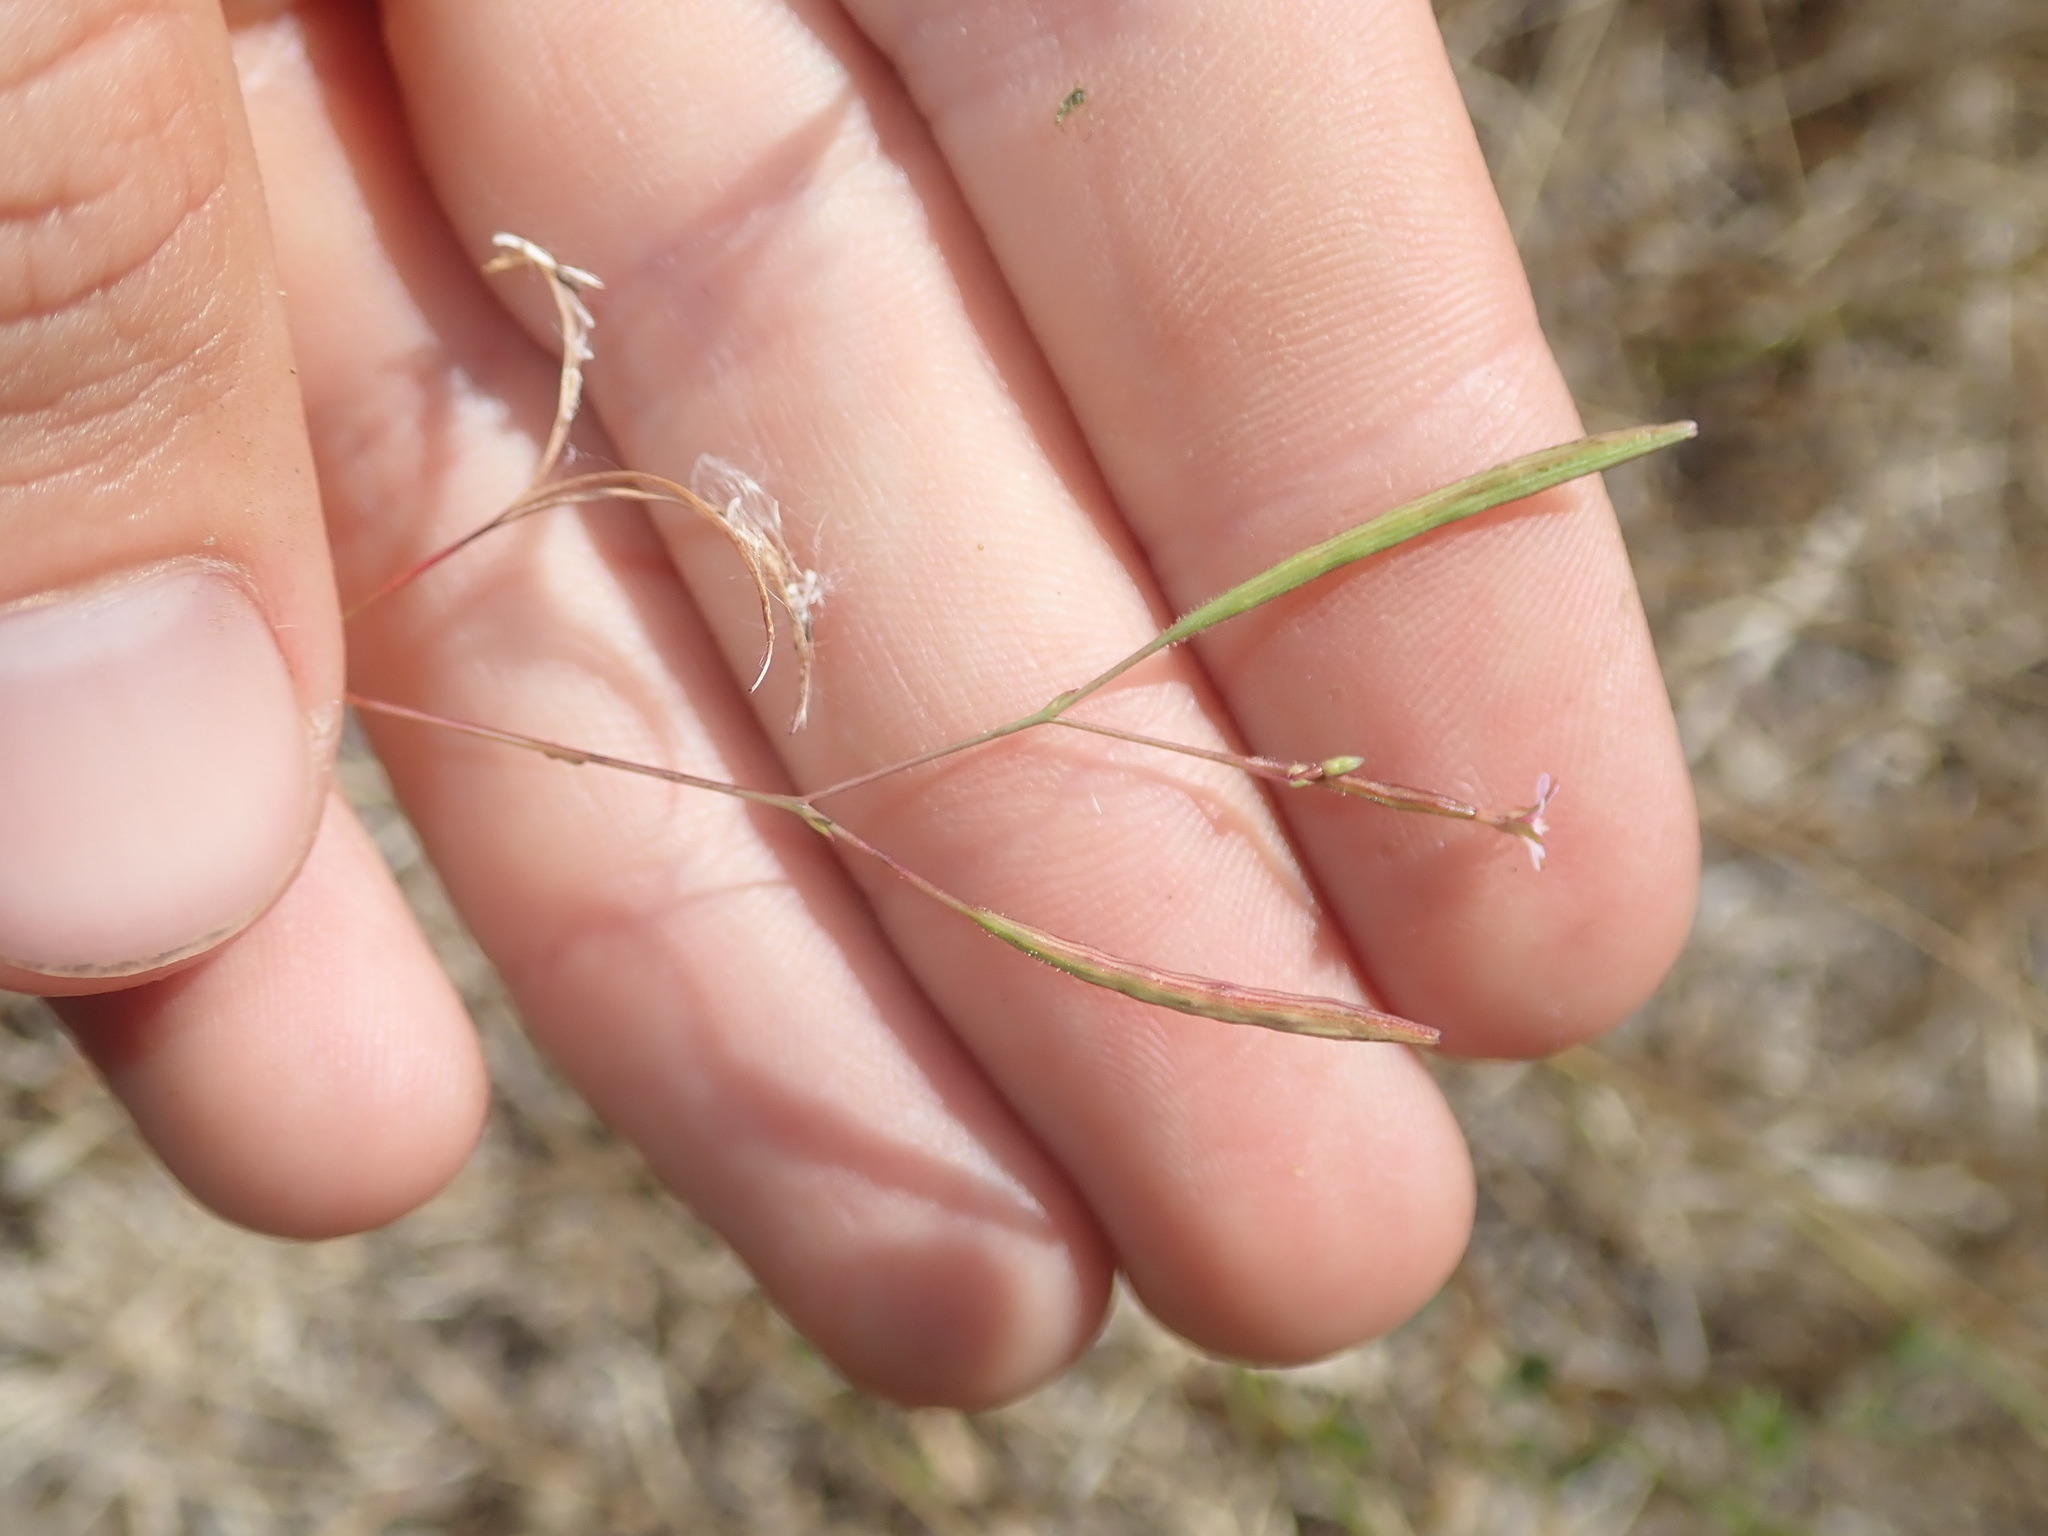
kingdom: Plantae
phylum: Tracheophyta
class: Magnoliopsida
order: Myrtales
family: Onagraceae
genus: Epilobium
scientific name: Epilobium brachycarpum
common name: Annual willowherb
